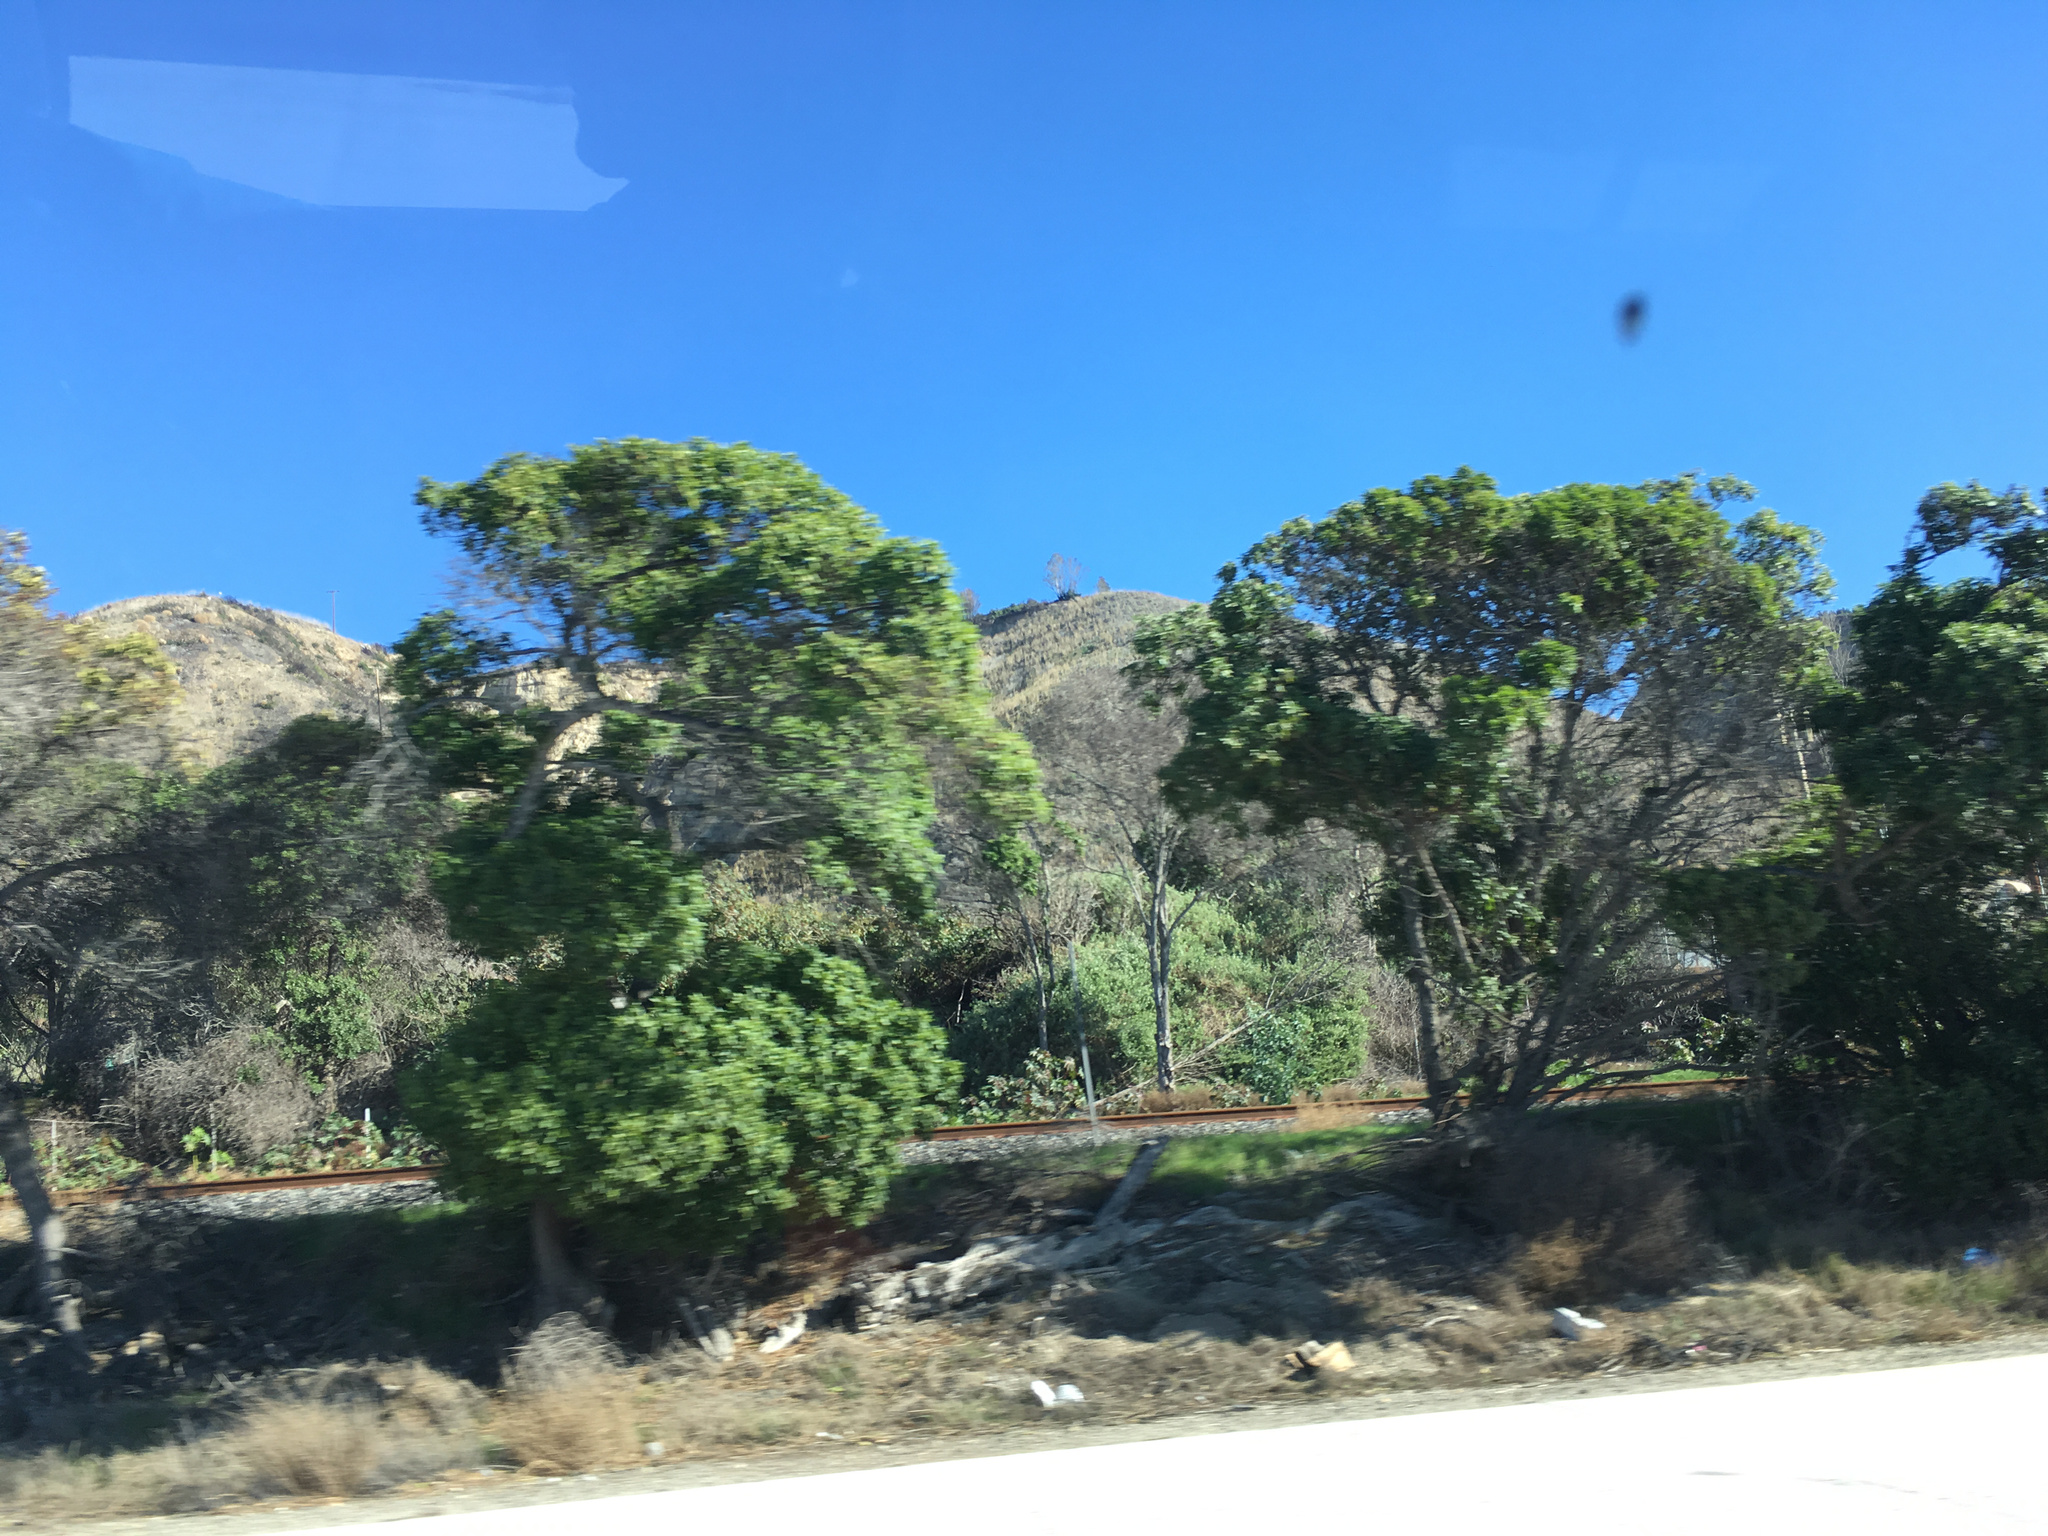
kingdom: Plantae
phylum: Tracheophyta
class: Magnoliopsida
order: Lamiales
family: Scrophulariaceae
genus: Myoporum
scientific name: Myoporum laetum
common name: Ngaio tree
